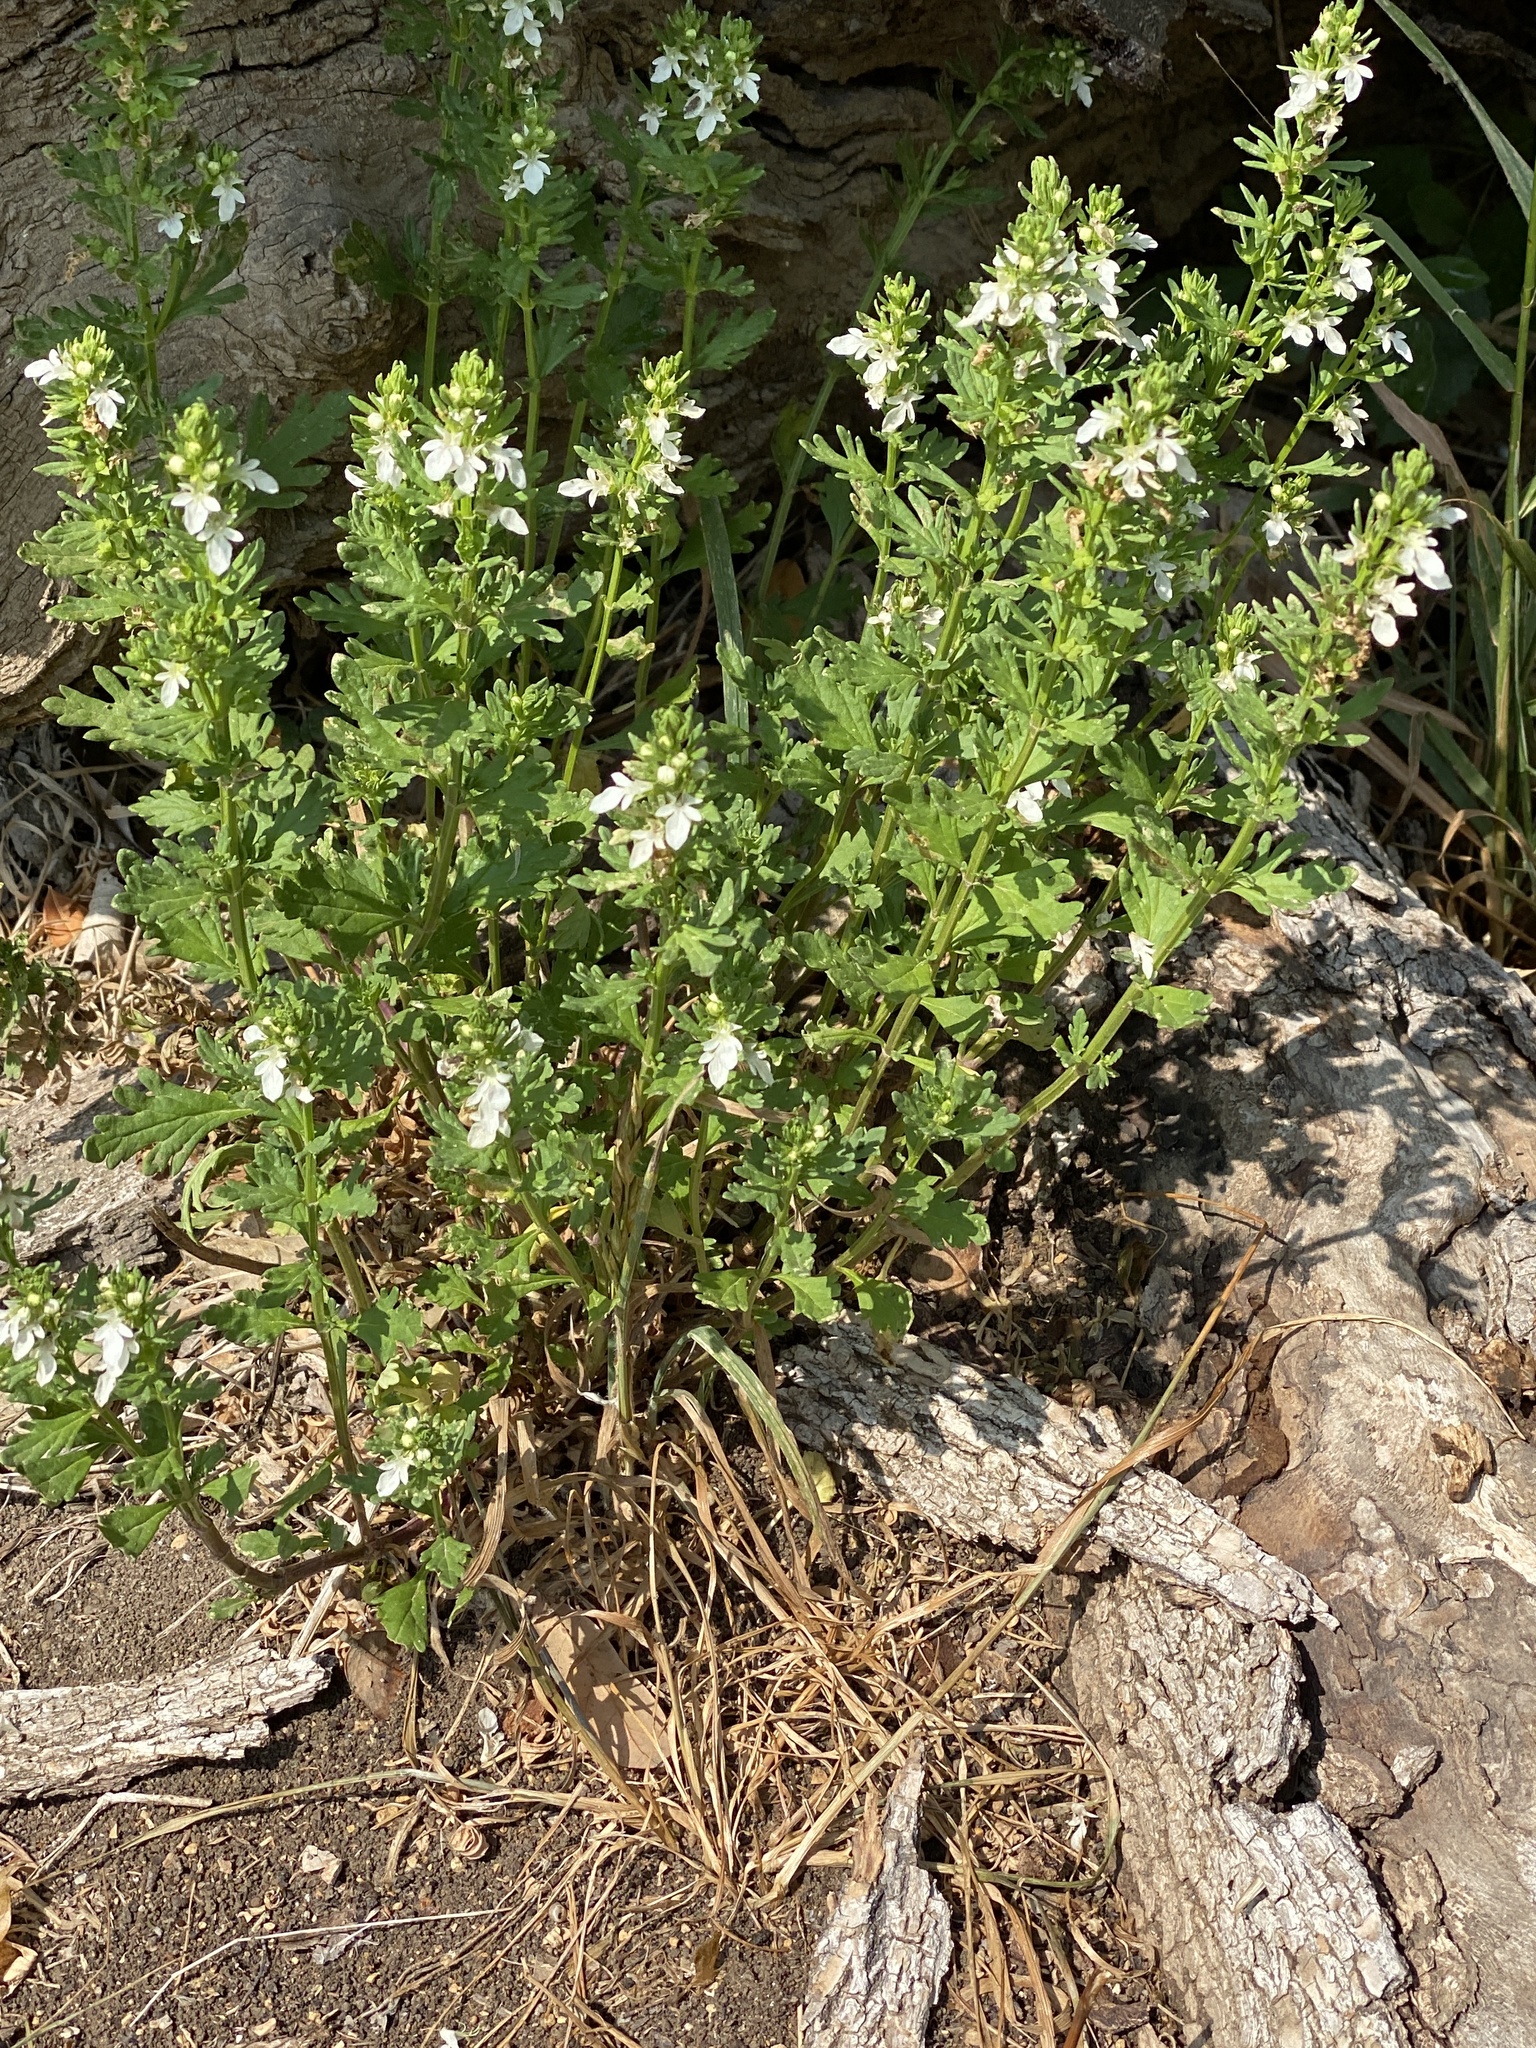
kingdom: Plantae
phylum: Tracheophyta
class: Magnoliopsida
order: Lamiales
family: Lamiaceae
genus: Teucrium
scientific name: Teucrium cubense
